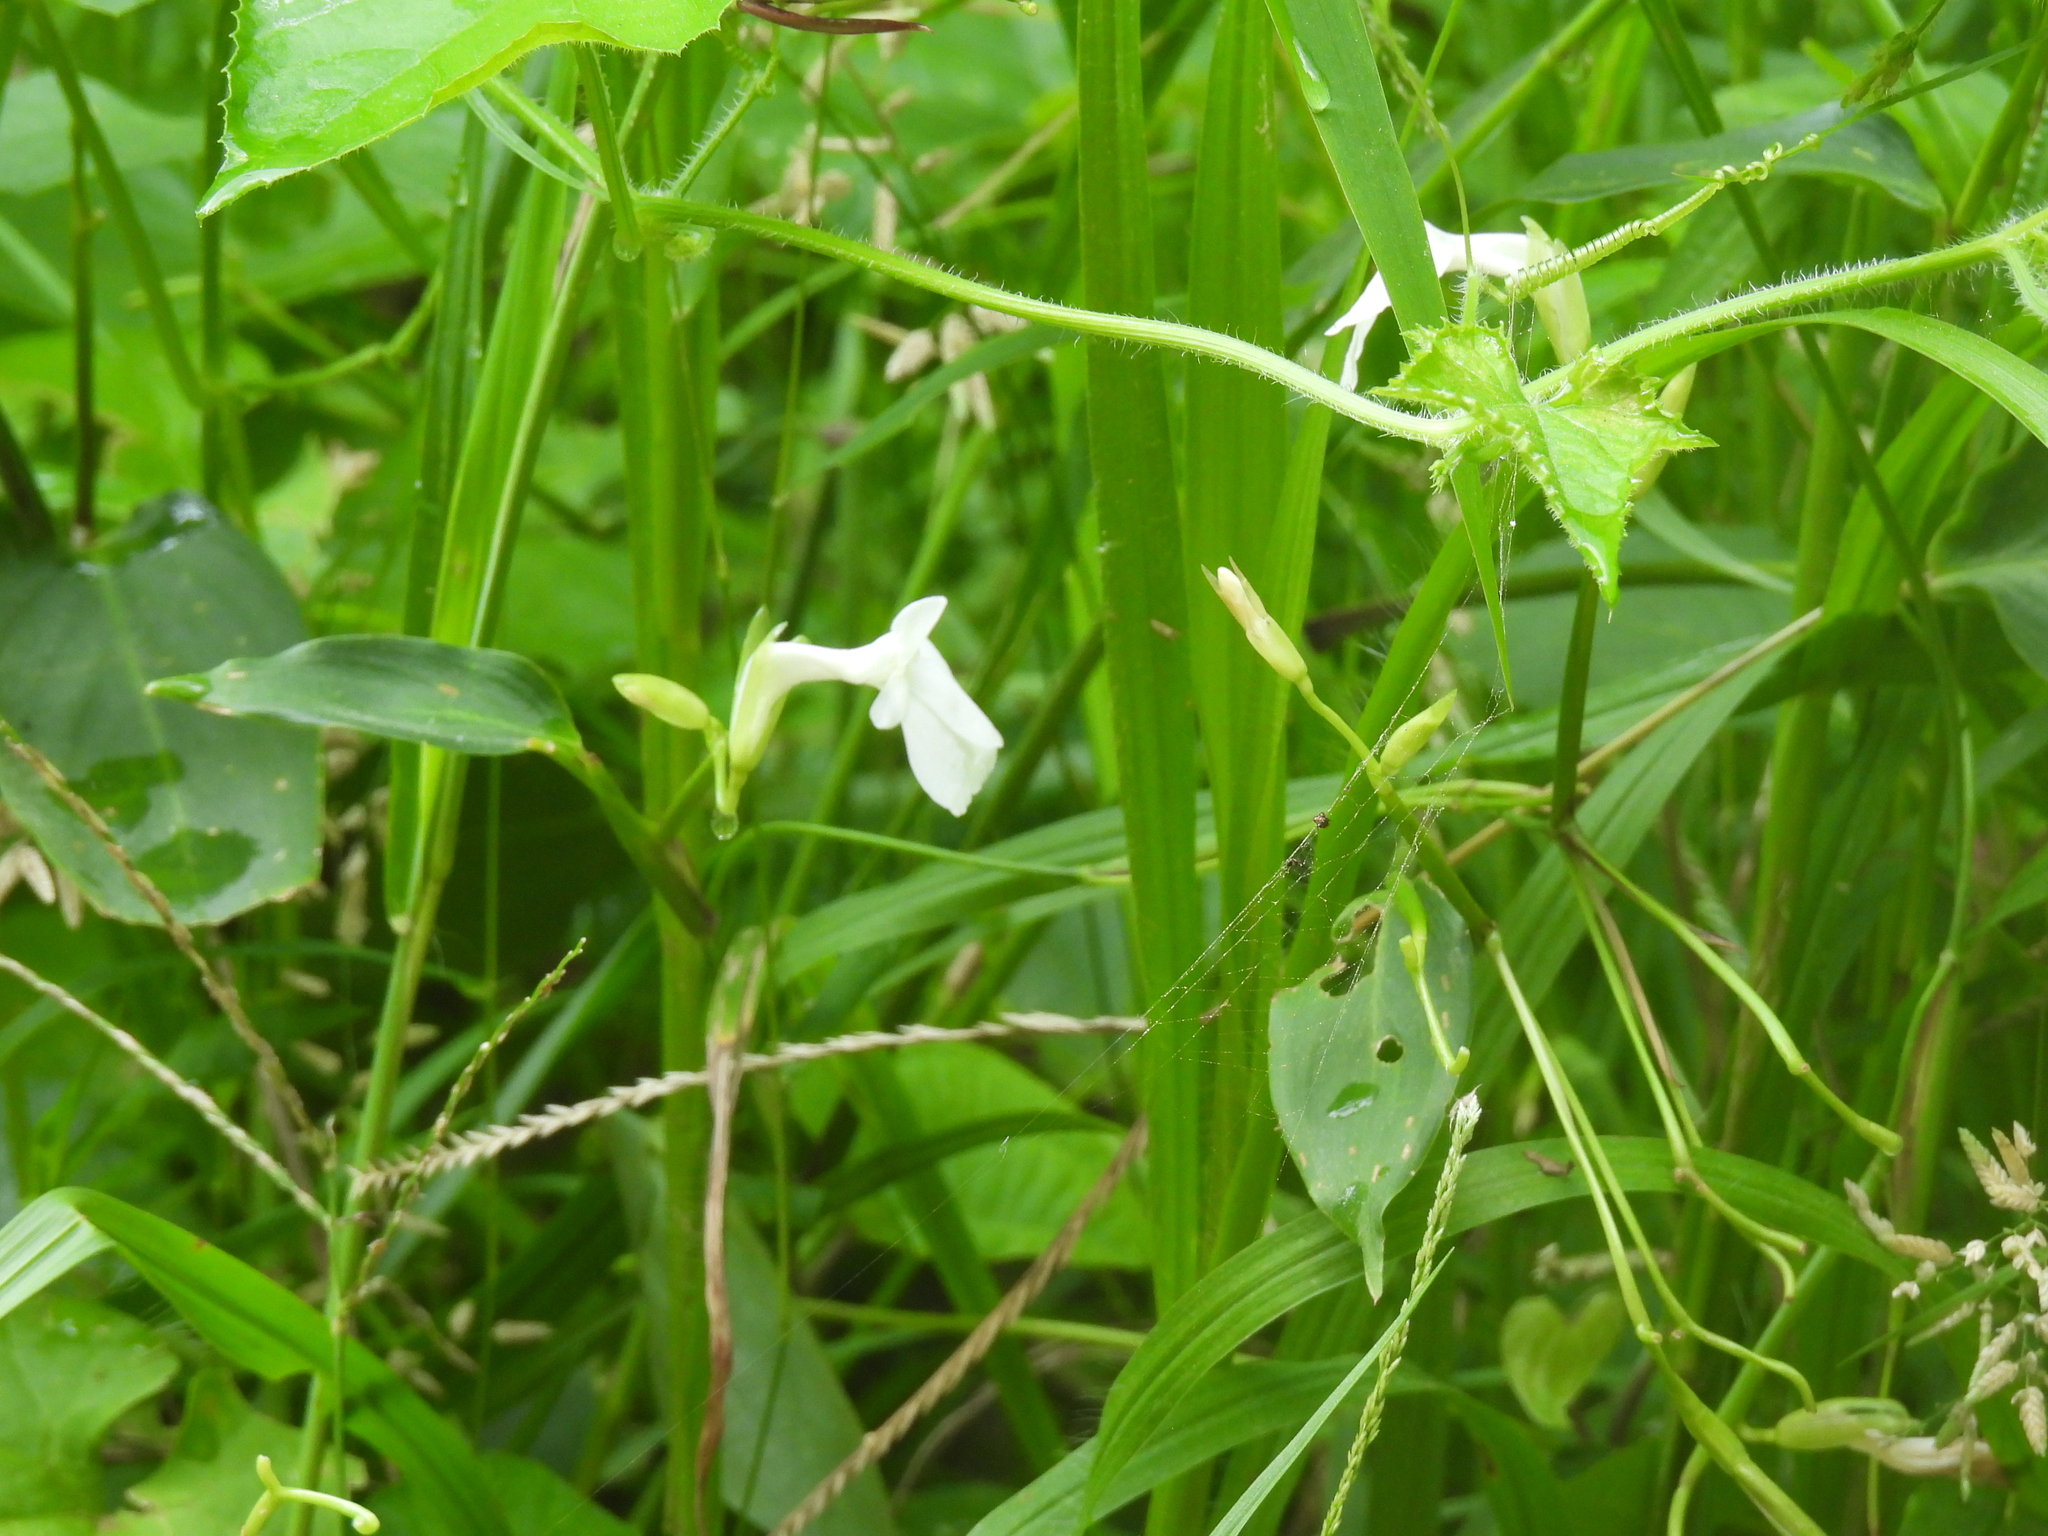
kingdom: Plantae
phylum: Tracheophyta
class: Liliopsida
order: Zingiberales
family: Marantaceae
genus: Maranta
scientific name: Maranta arundinacea
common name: Arrowroot
